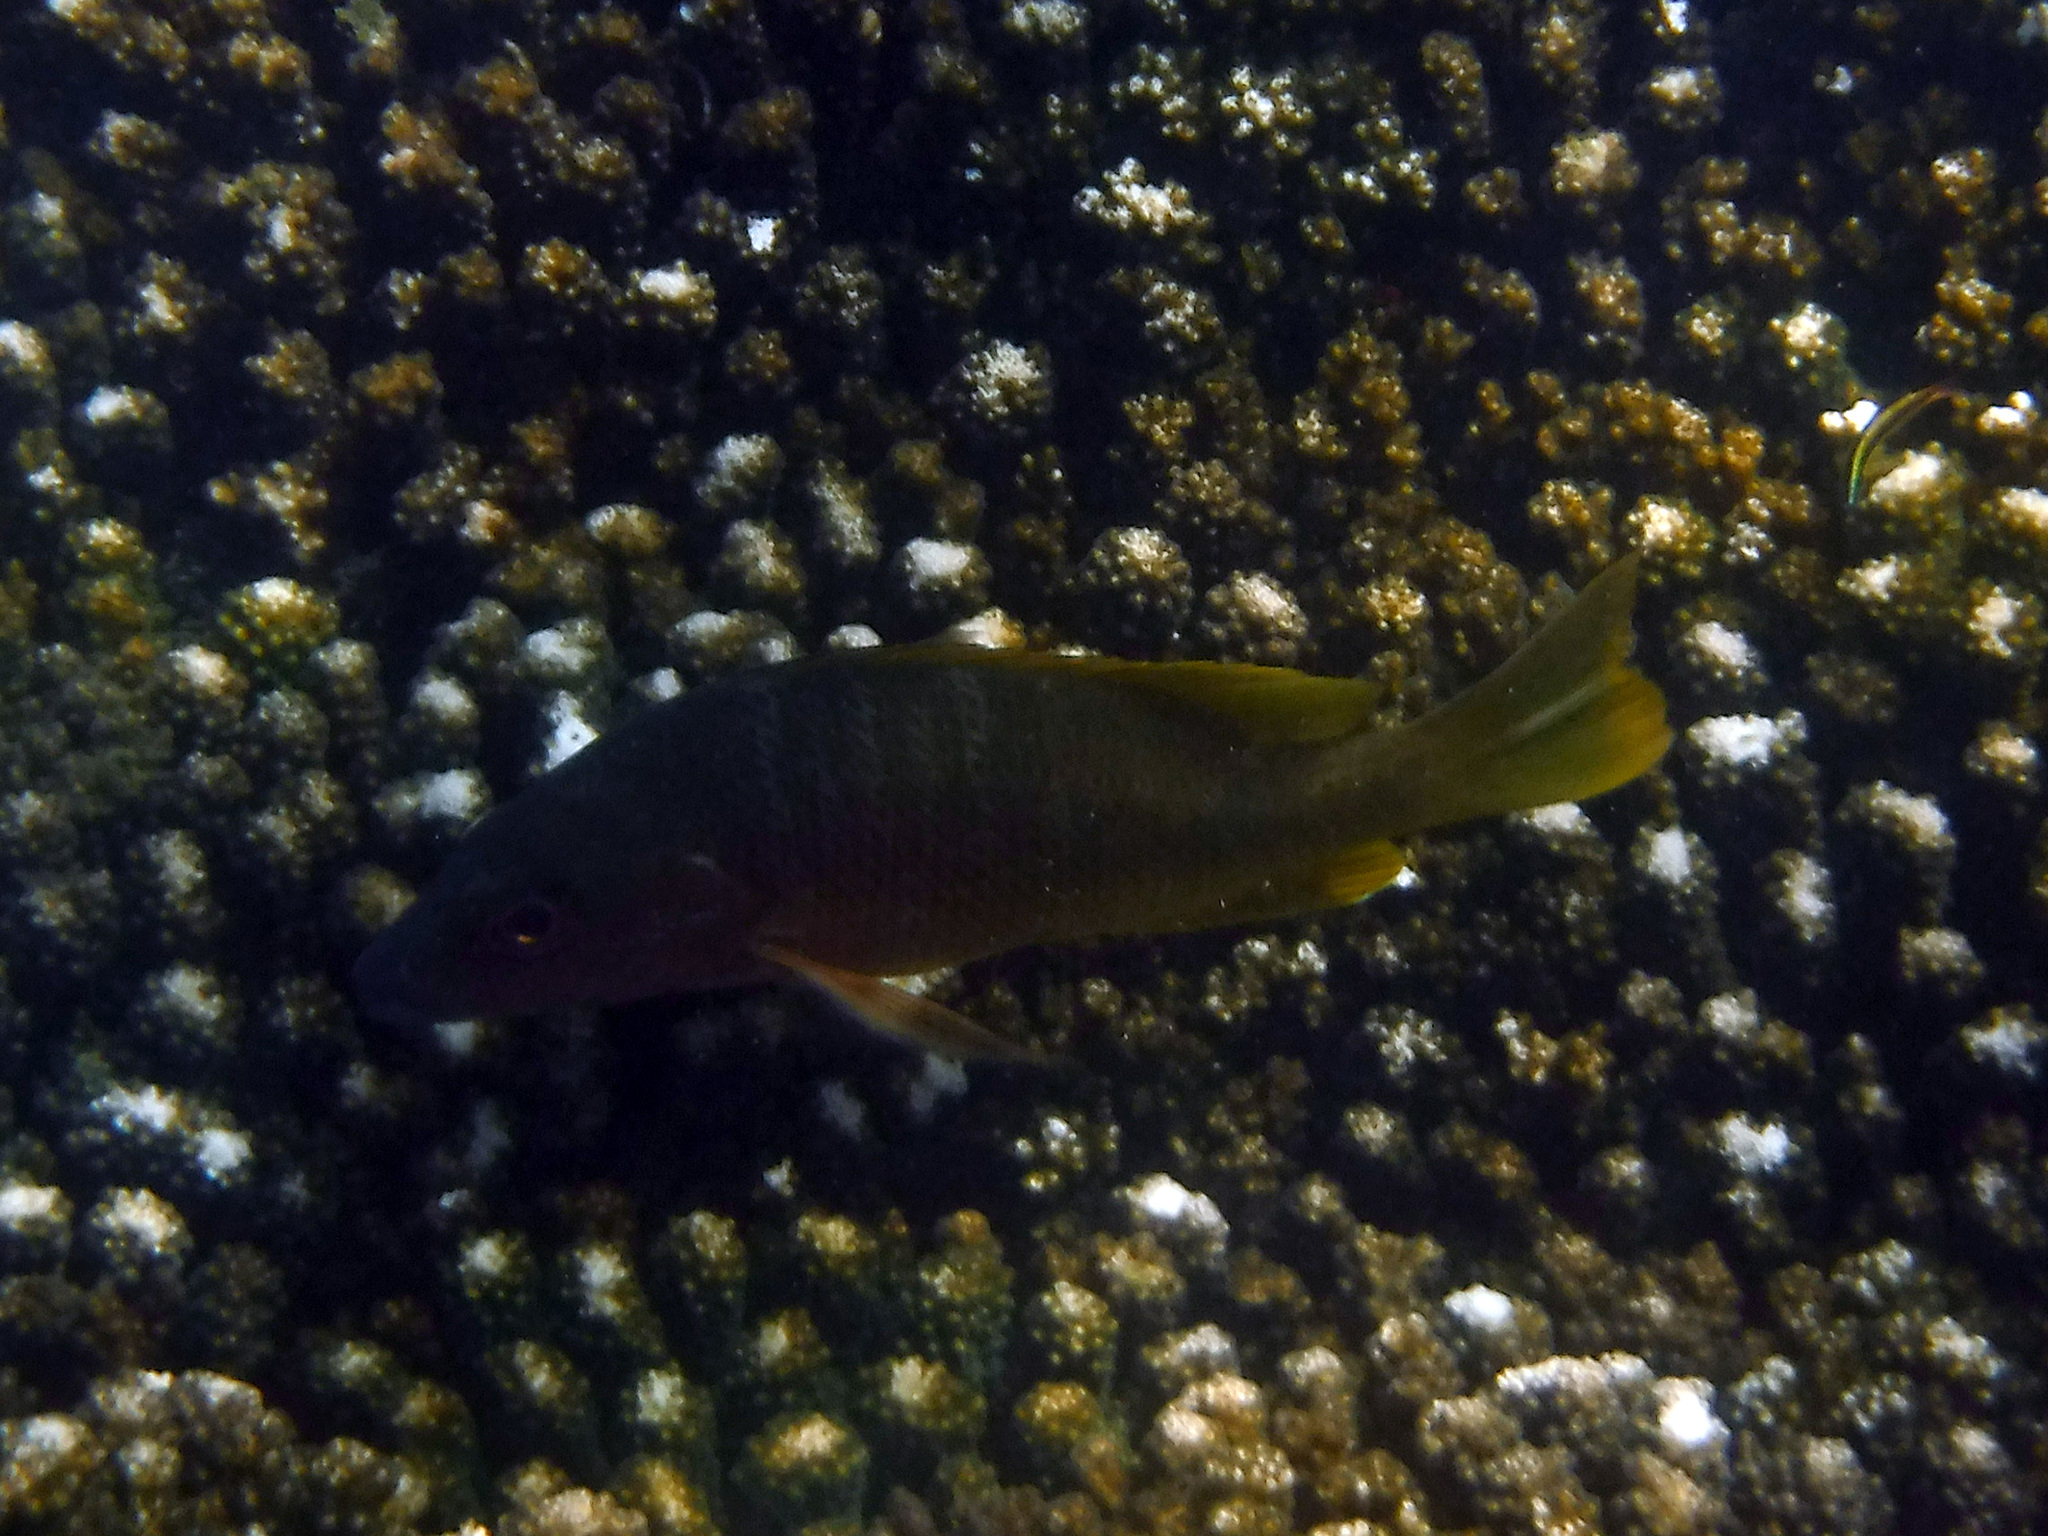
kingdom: Animalia
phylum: Chordata
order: Perciformes
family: Lutjanidae
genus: Lutjanus
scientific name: Lutjanus argentiventris
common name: Yellow snapper
